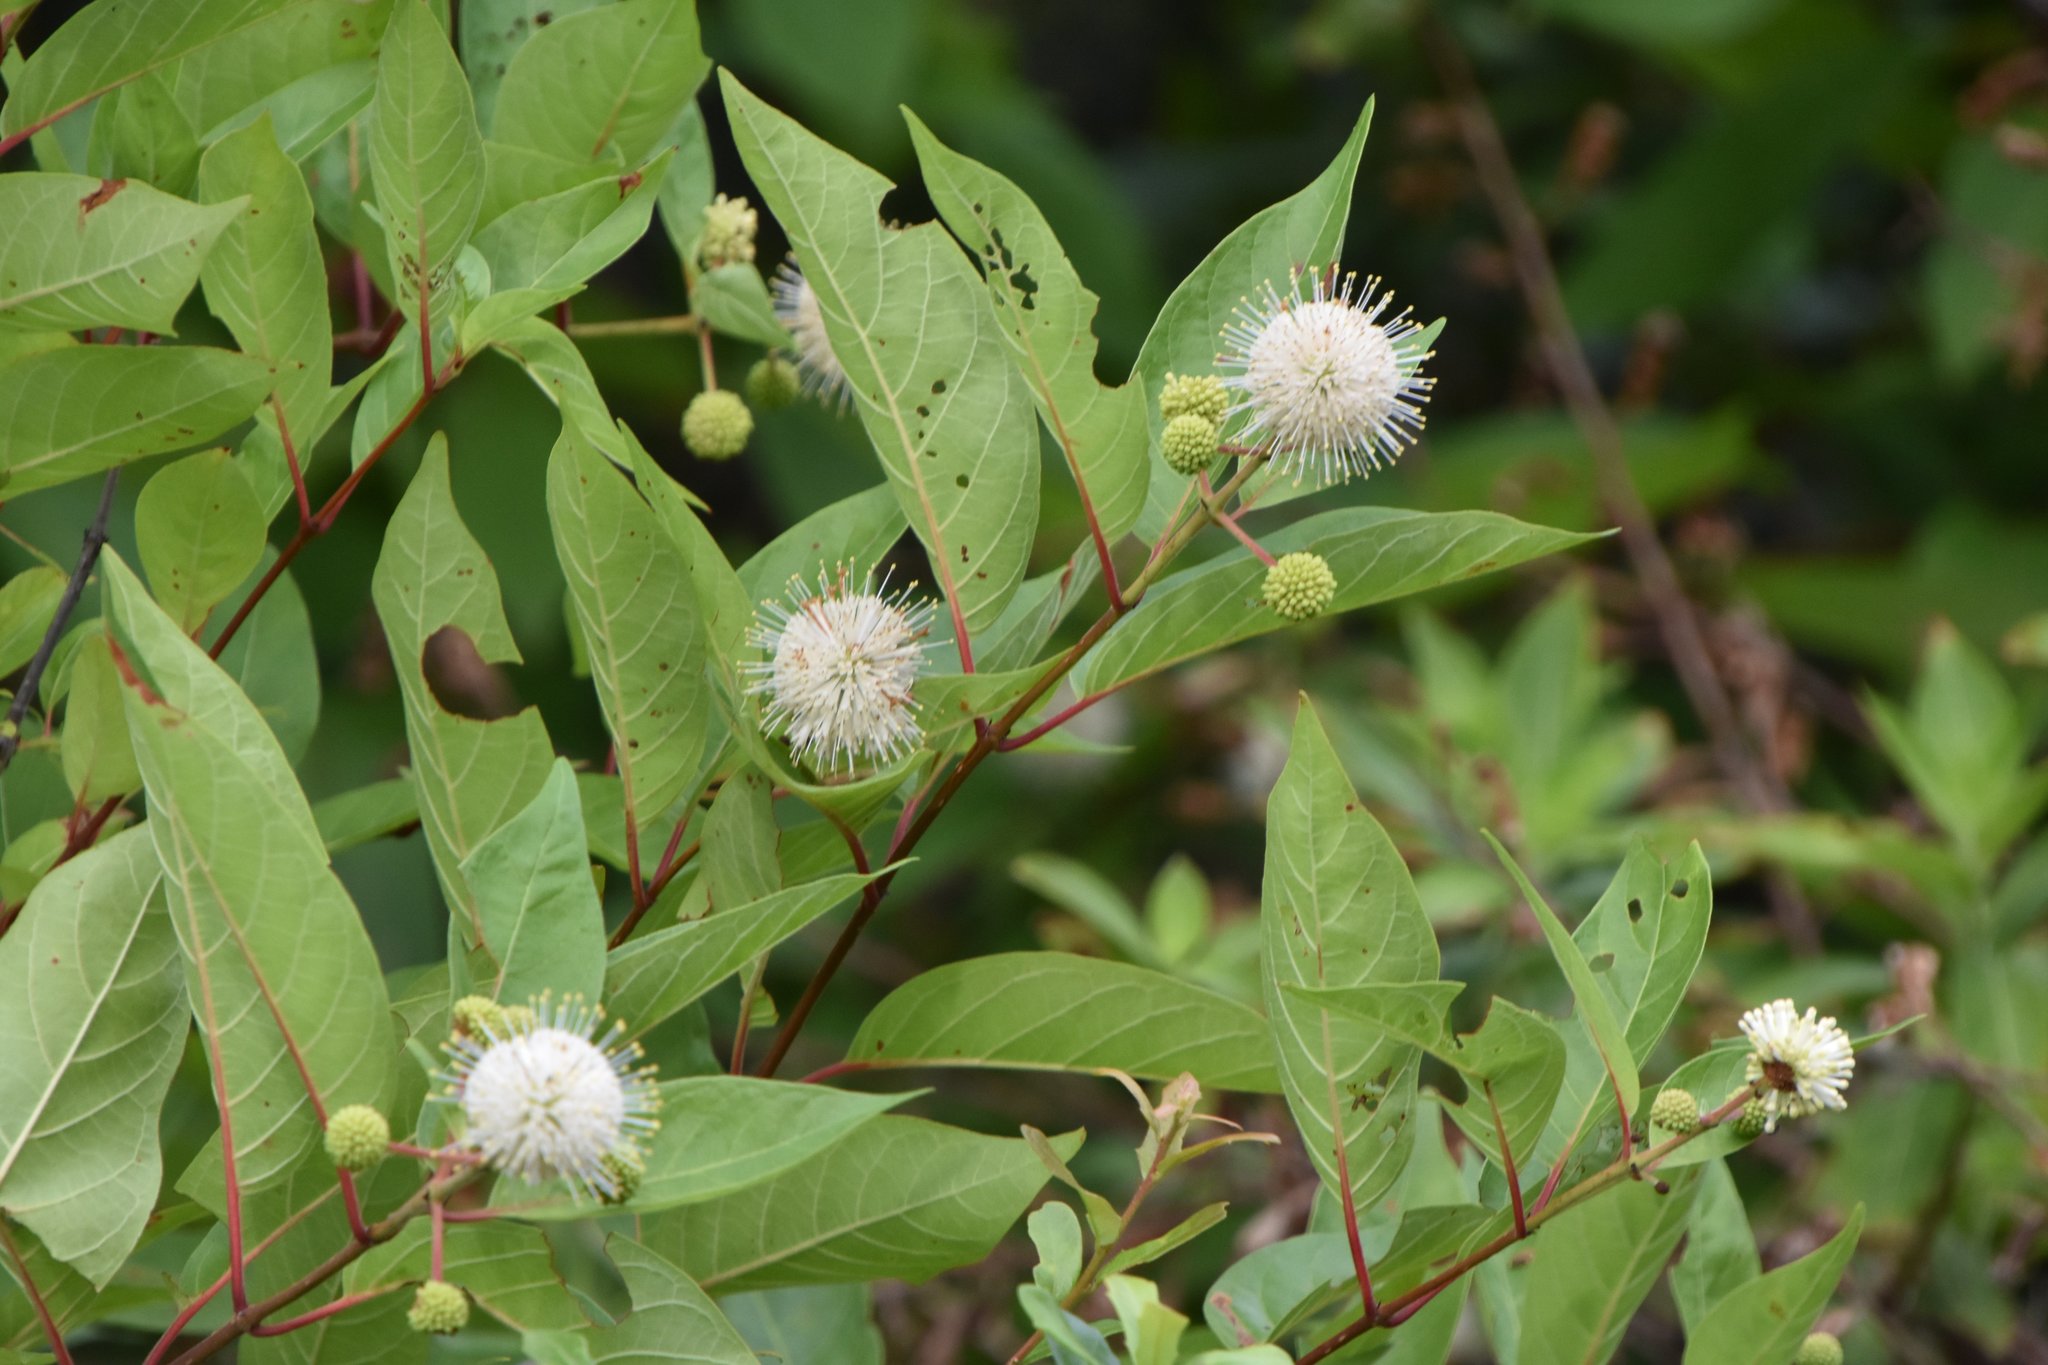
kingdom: Plantae
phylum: Tracheophyta
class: Magnoliopsida
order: Gentianales
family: Rubiaceae
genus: Cephalanthus
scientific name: Cephalanthus occidentalis
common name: Button-willow
